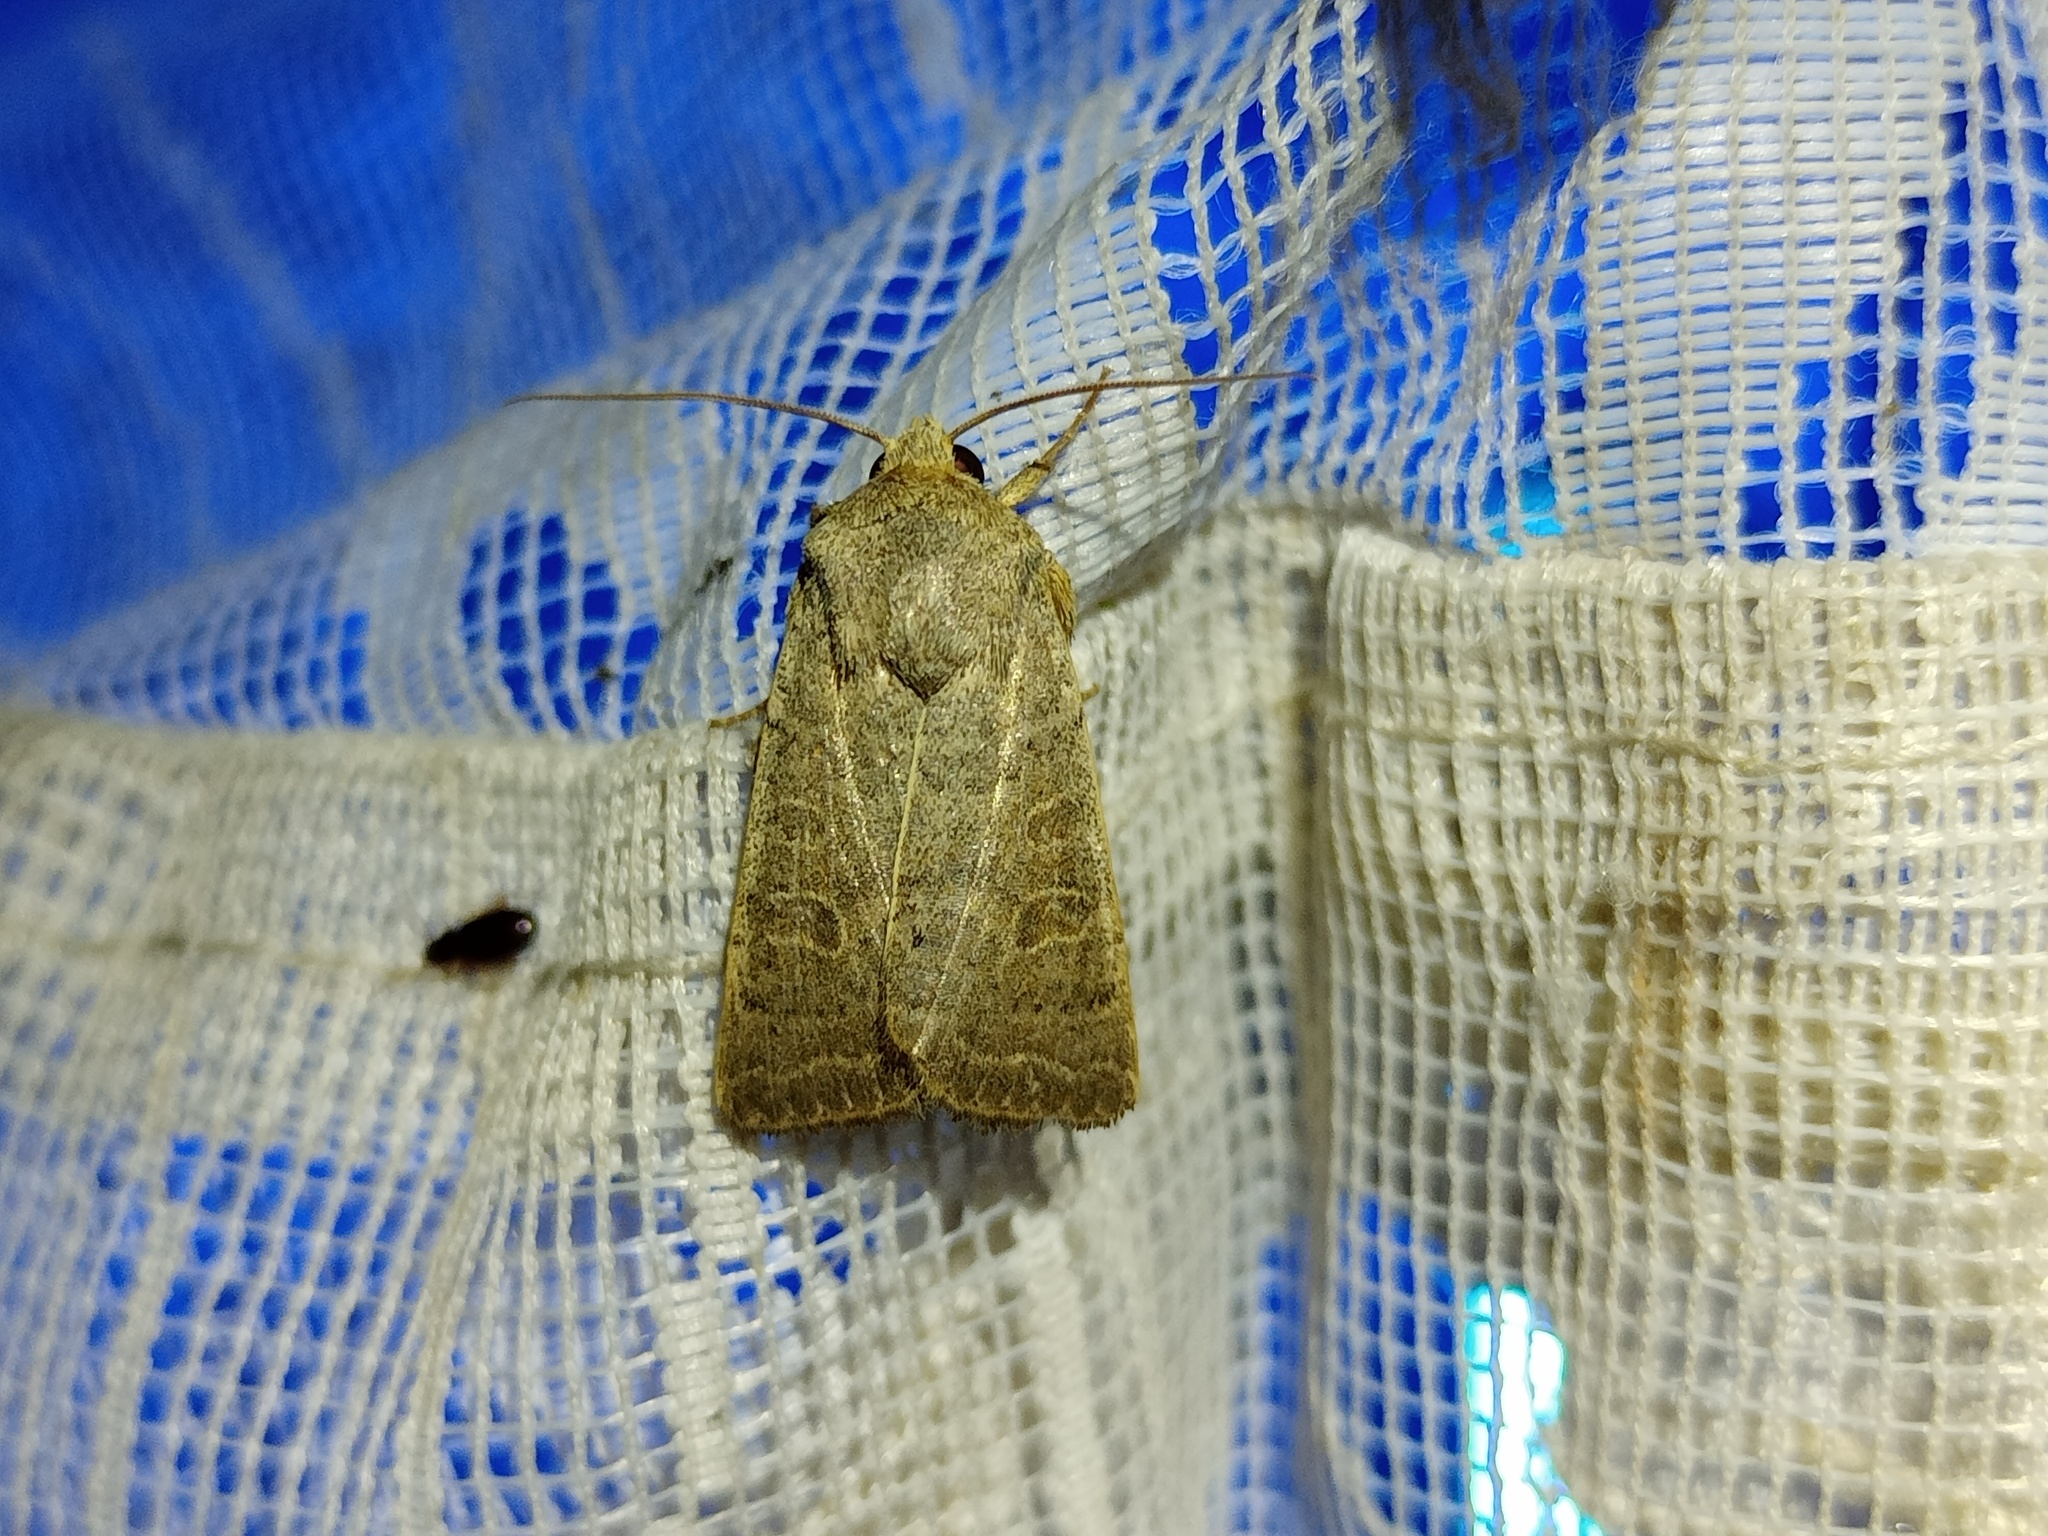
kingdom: Animalia
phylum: Arthropoda
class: Insecta
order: Lepidoptera
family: Noctuidae
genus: Hoplodrina
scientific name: Hoplodrina ambigua
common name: Vine's rustic
